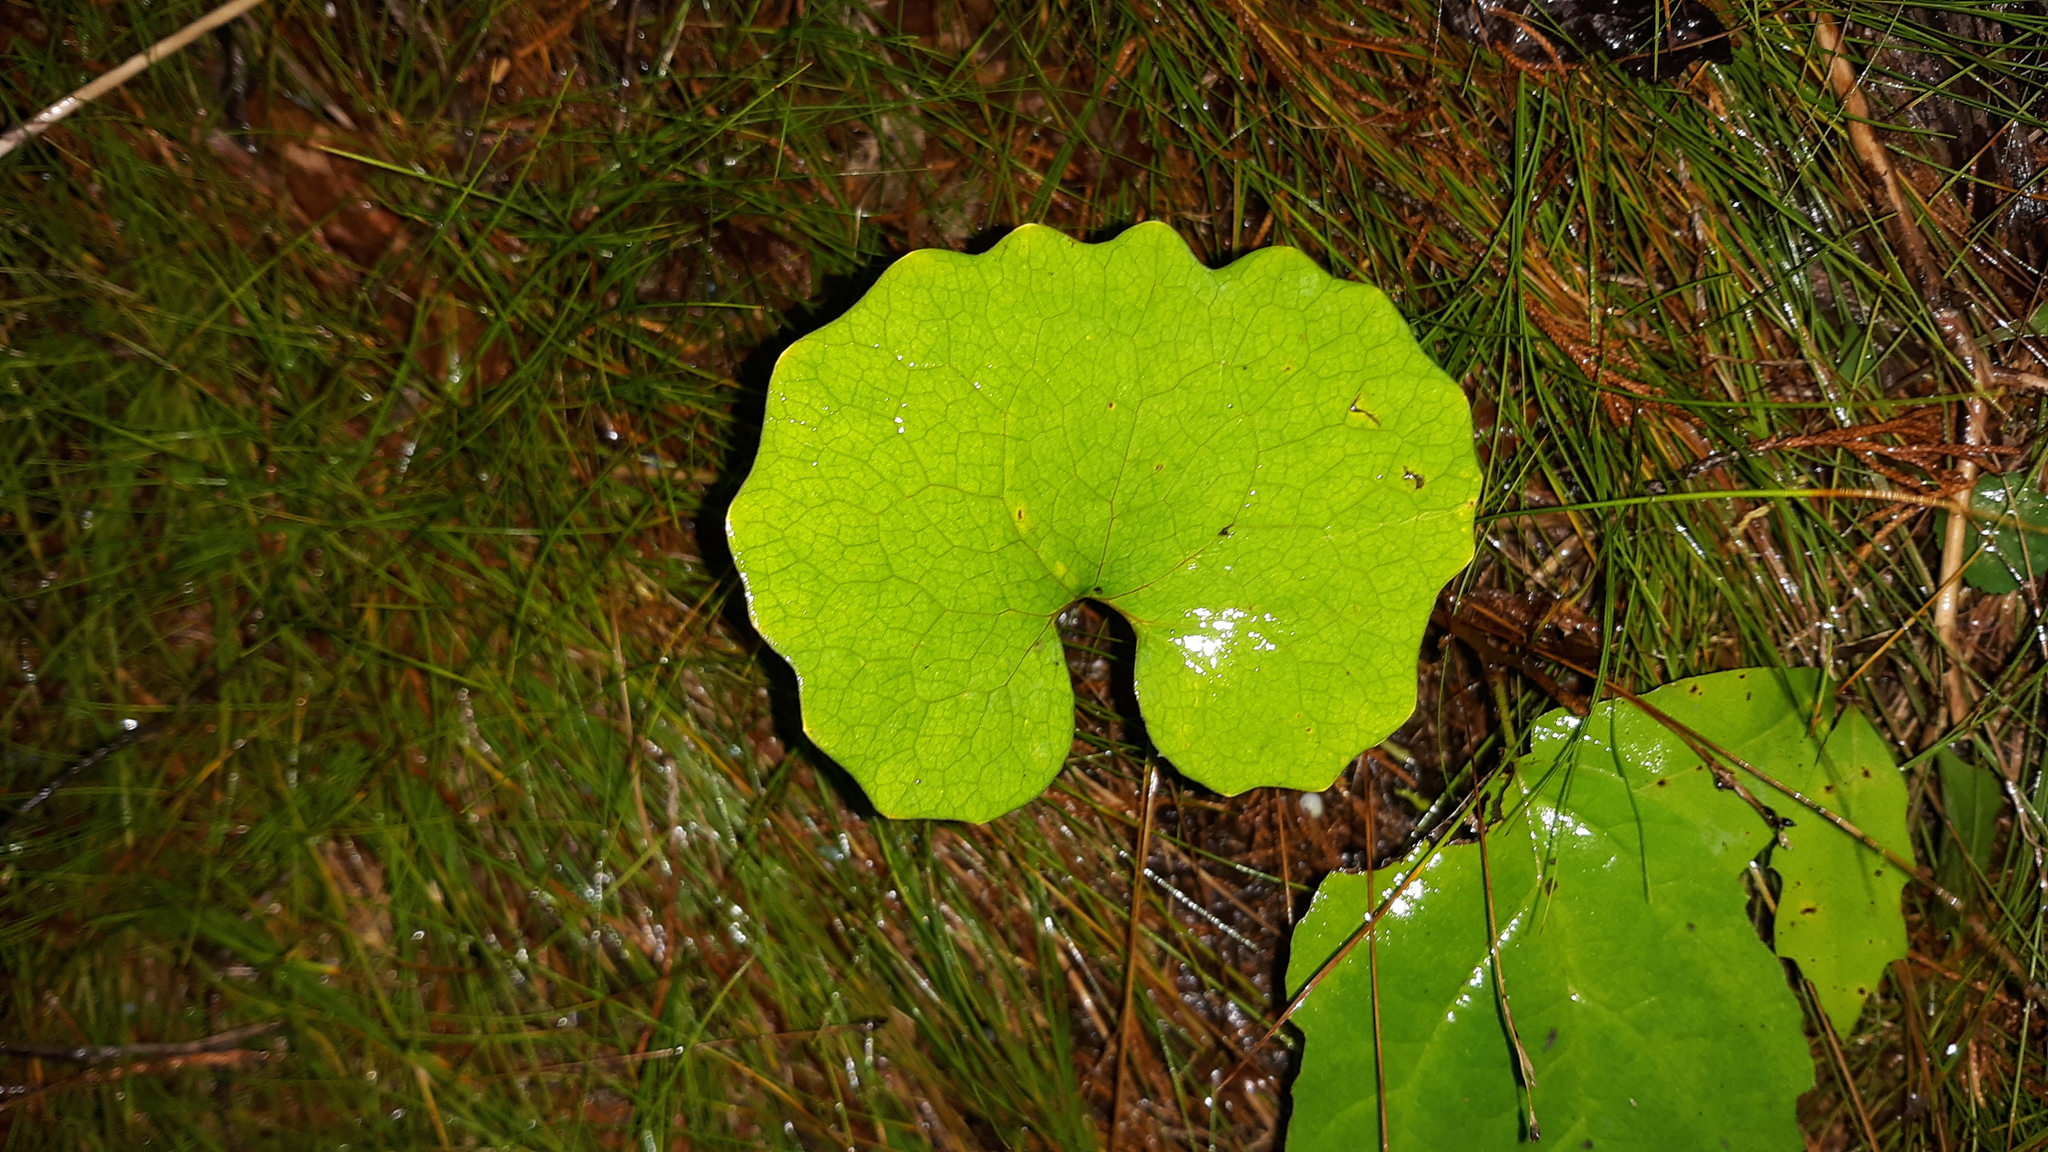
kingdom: Plantae
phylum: Tracheophyta
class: Magnoliopsida
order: Ranunculales
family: Papaveraceae
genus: Sanguinaria
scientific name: Sanguinaria canadensis
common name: Bloodroot
